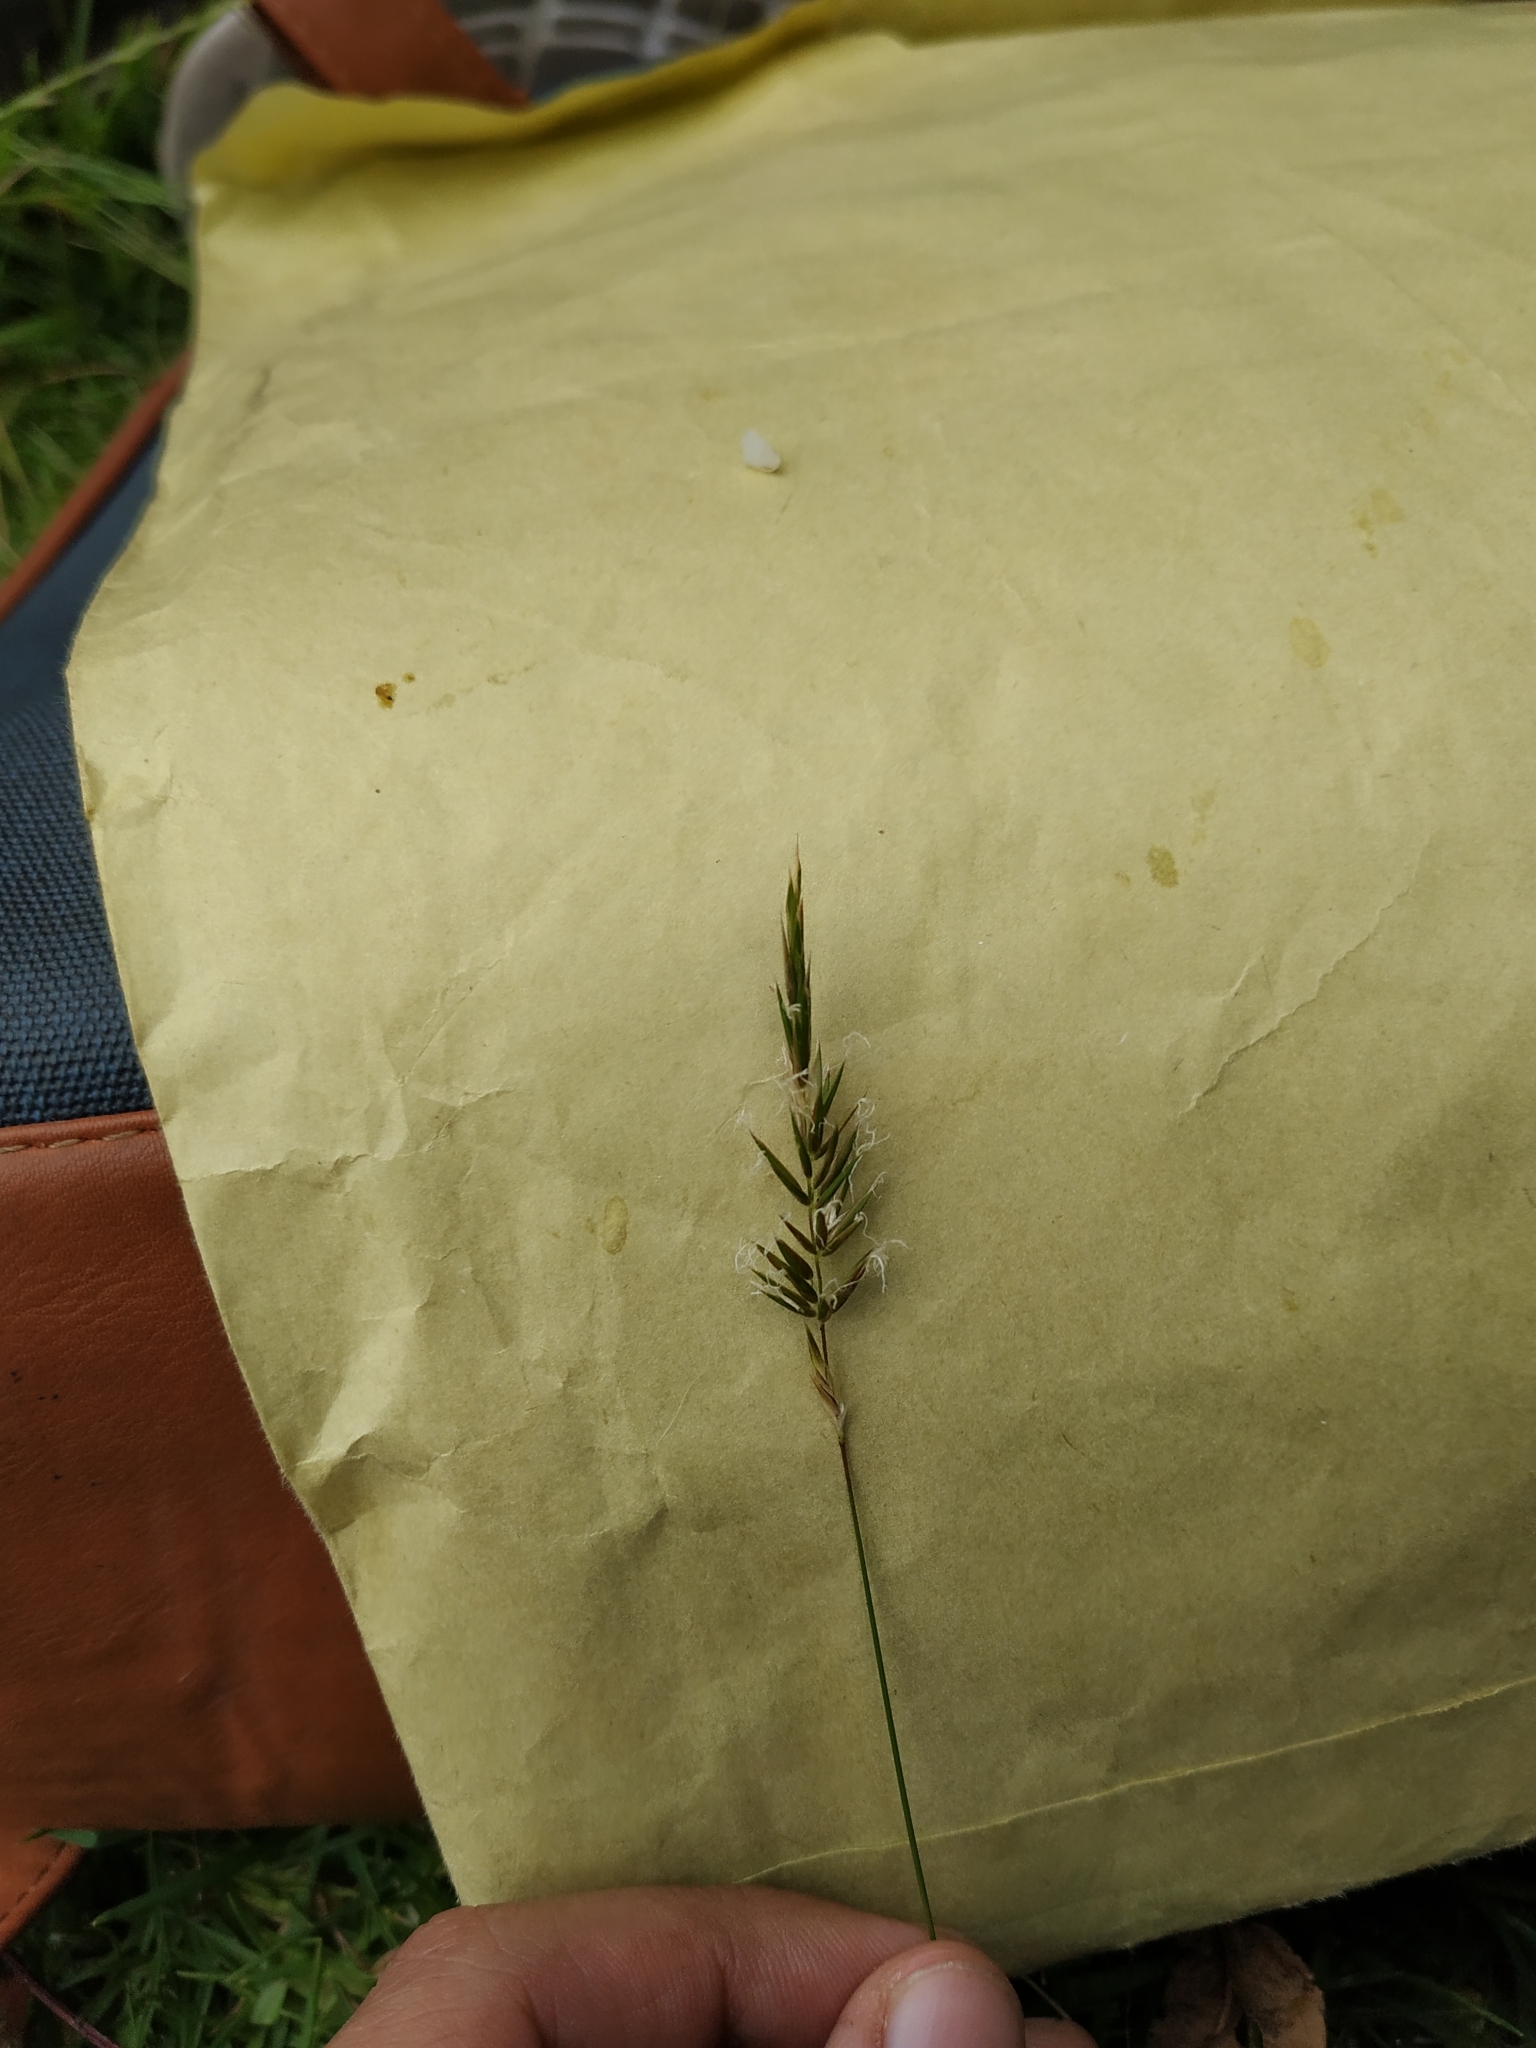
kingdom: Plantae
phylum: Tracheophyta
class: Liliopsida
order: Poales
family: Poaceae
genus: Anthoxanthum
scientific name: Anthoxanthum odoratum
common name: Sweet vernalgrass
